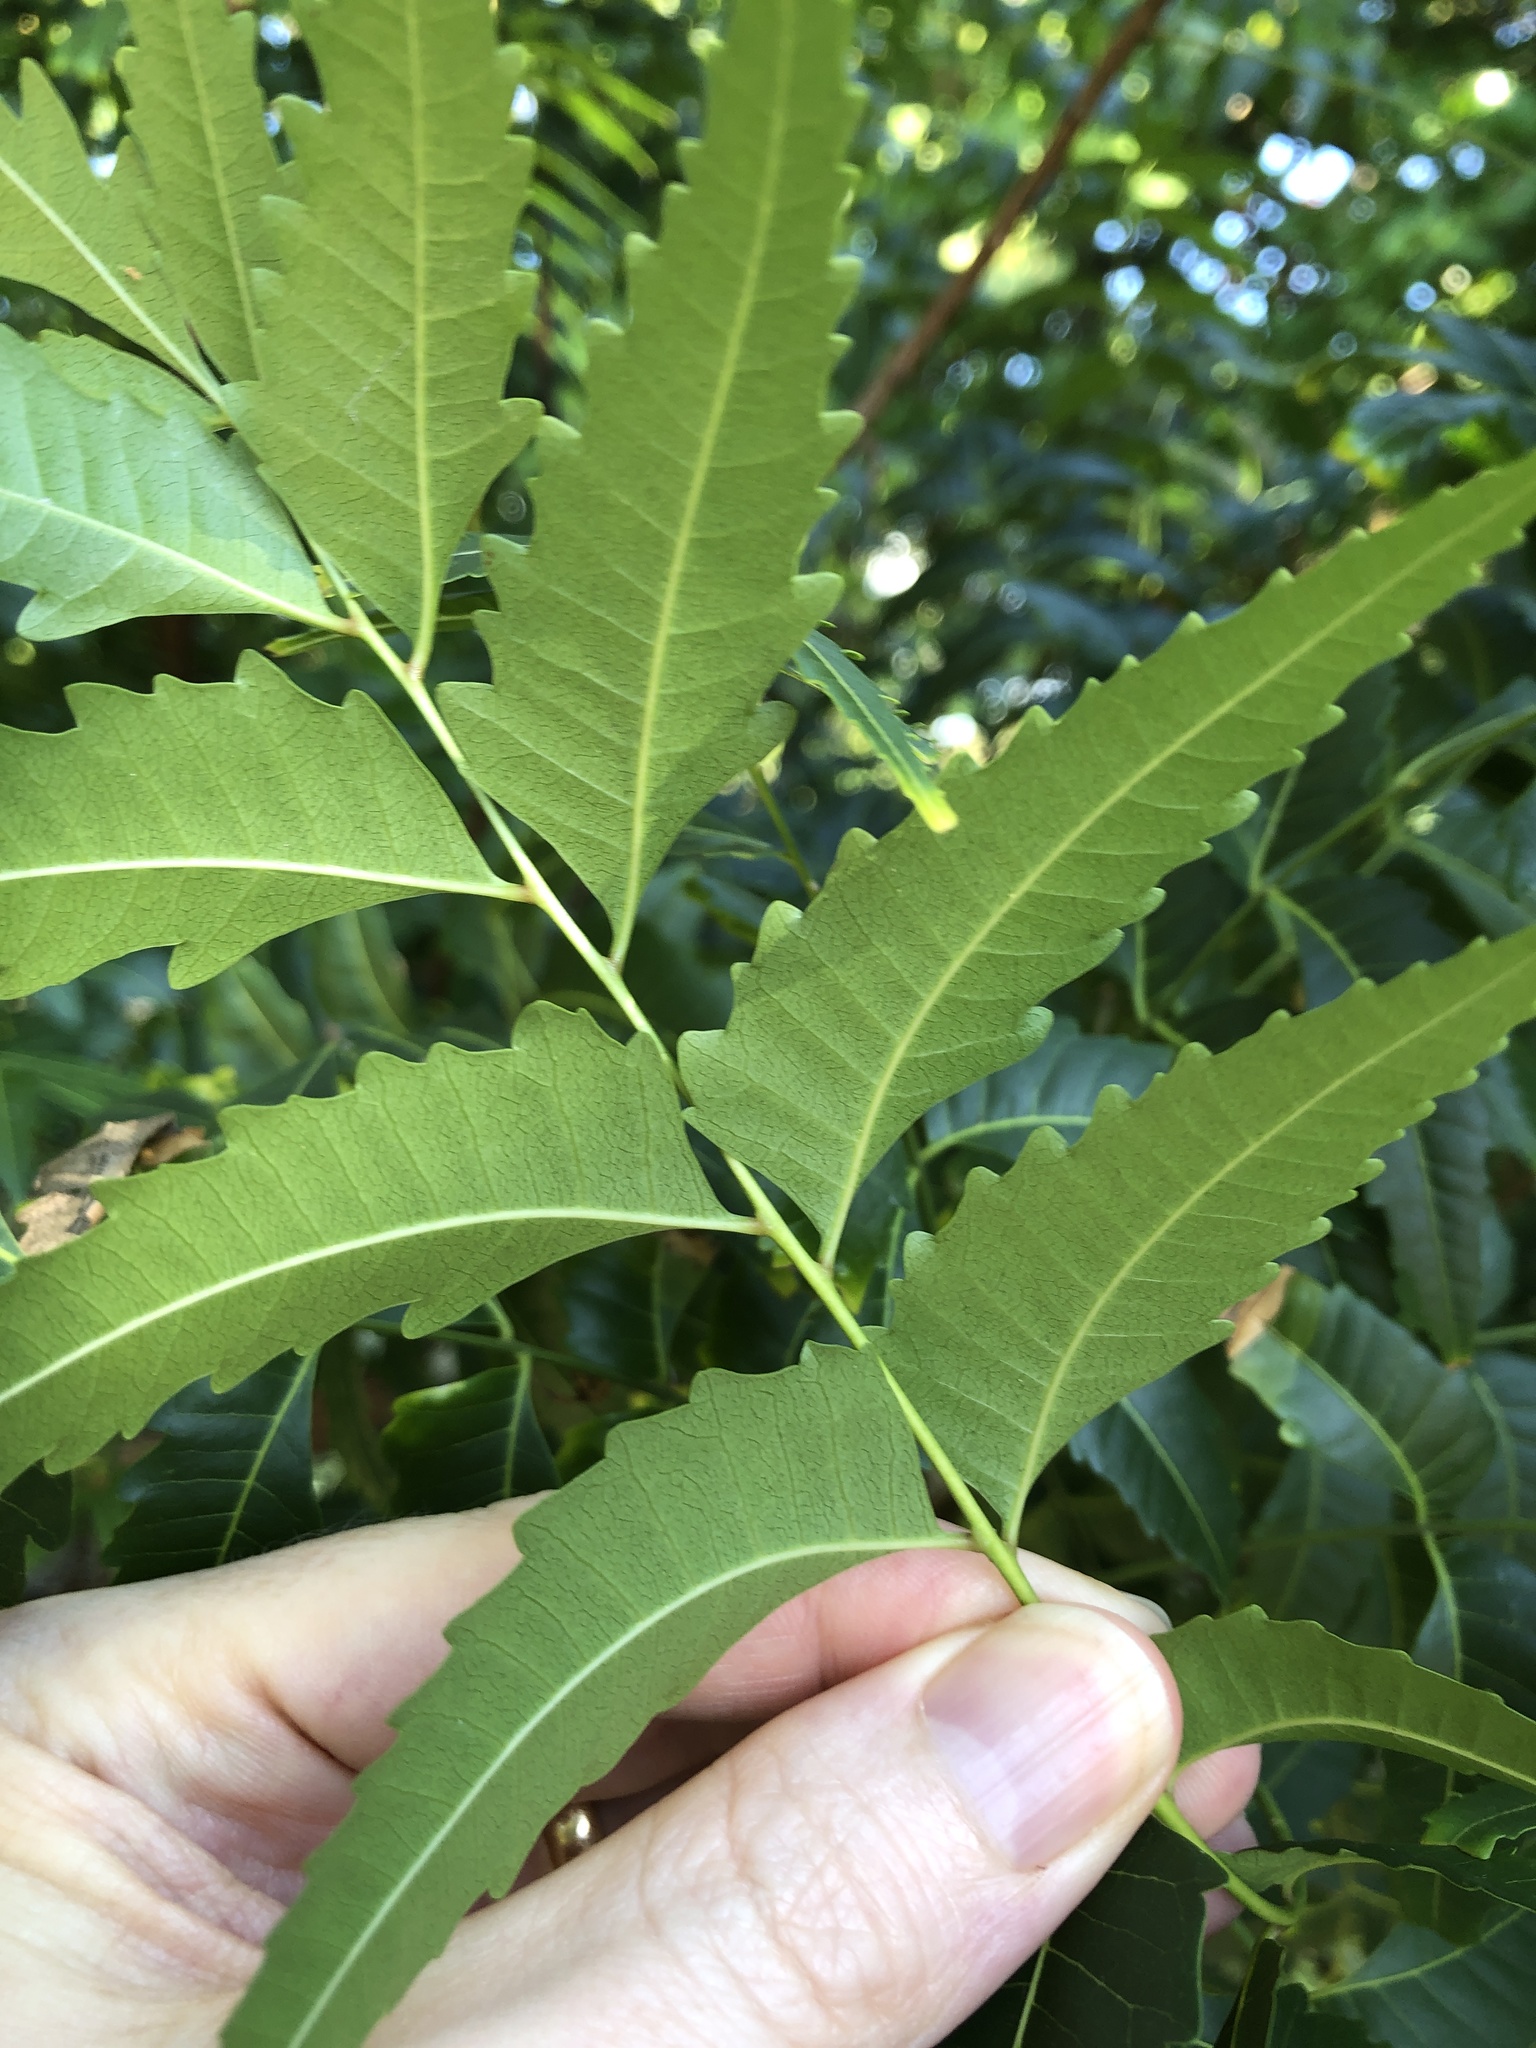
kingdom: Plantae
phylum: Tracheophyta
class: Magnoliopsida
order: Sapindales
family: Meliaceae
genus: Azadirachta
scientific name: Azadirachta indica
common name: Neem
